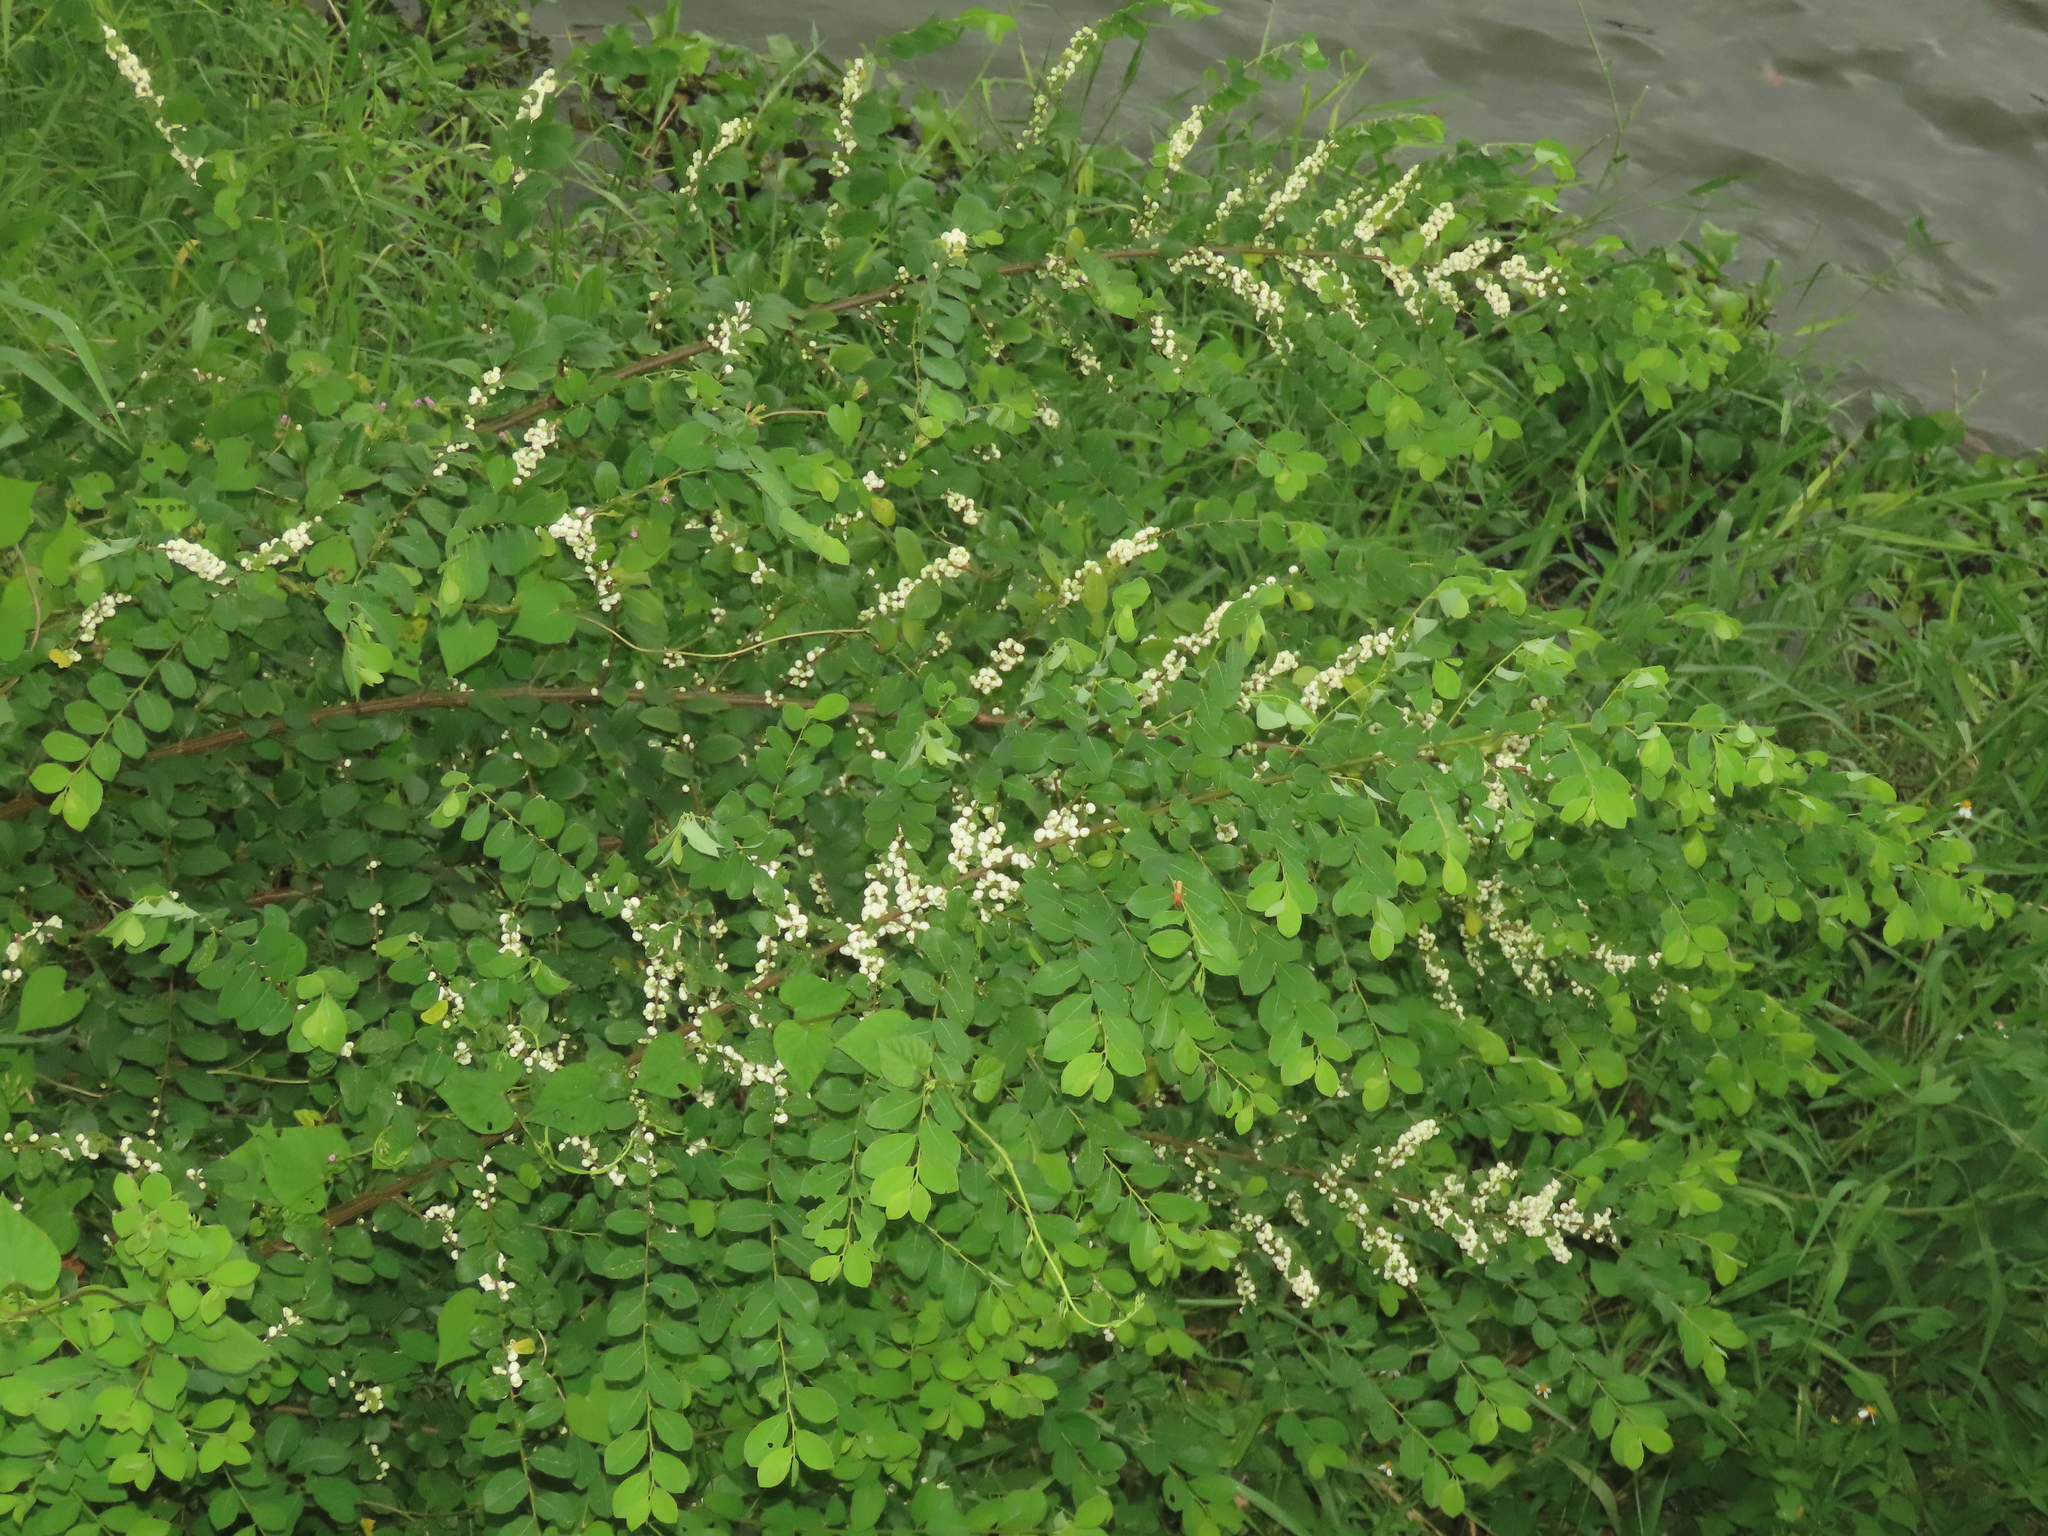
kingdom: Plantae
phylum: Tracheophyta
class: Magnoliopsida
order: Malpighiales
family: Phyllanthaceae
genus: Flueggea
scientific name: Flueggea virosa
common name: Common bushweed
